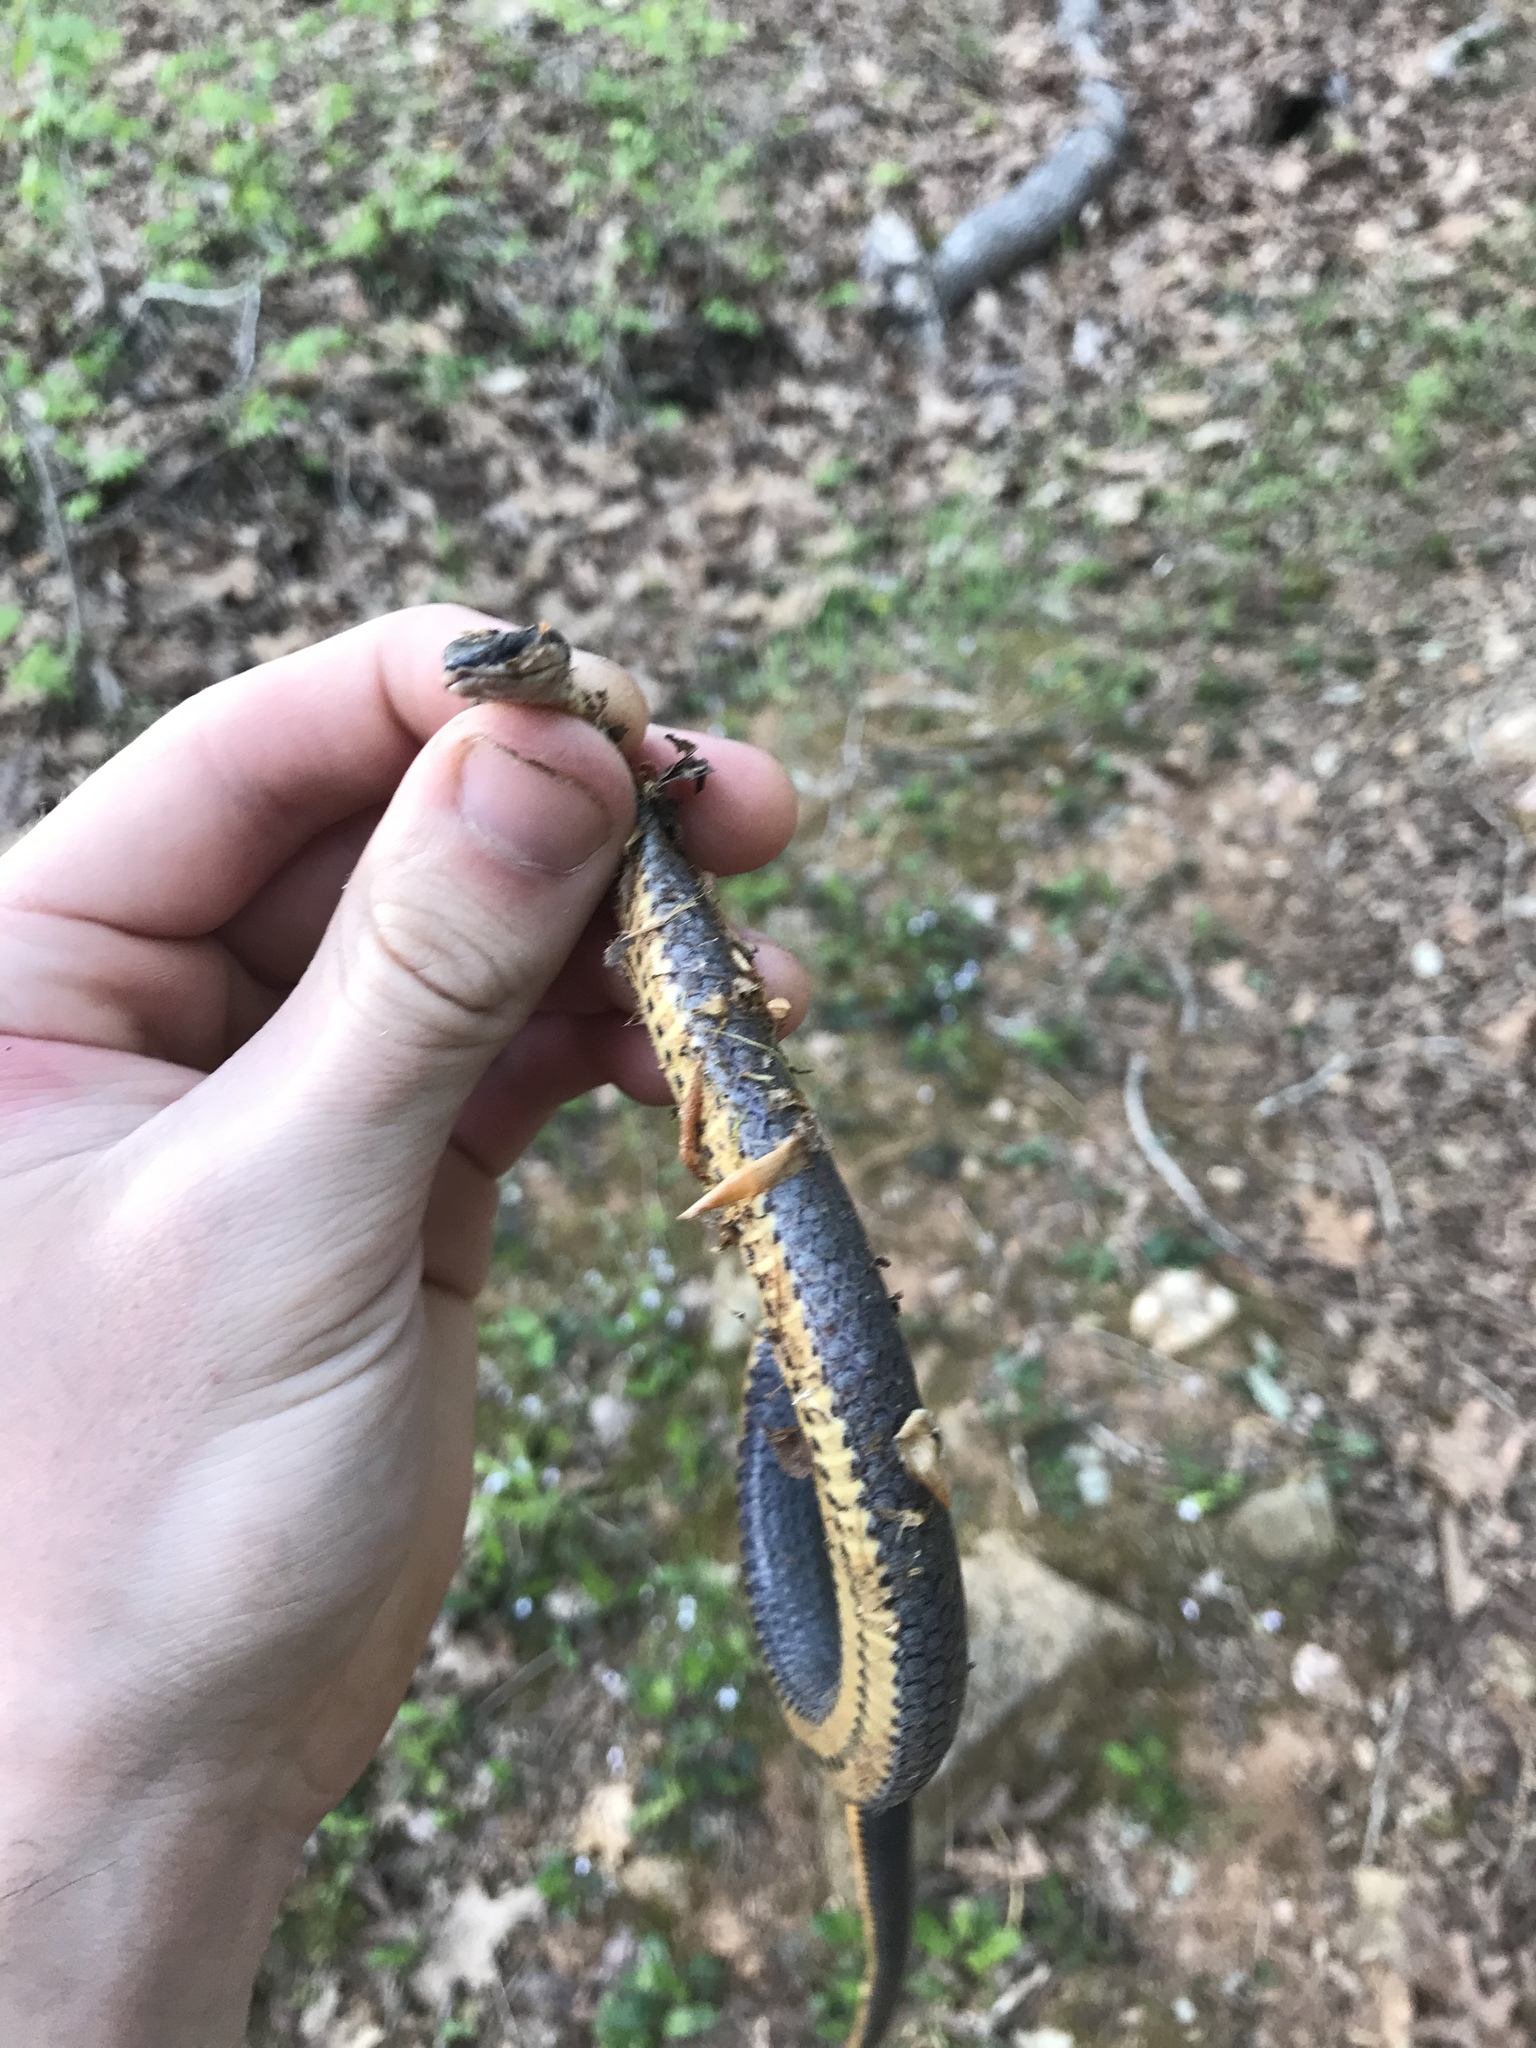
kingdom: Animalia
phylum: Chordata
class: Squamata
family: Colubridae
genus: Diadophis
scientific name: Diadophis punctatus
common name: Ringneck snake
